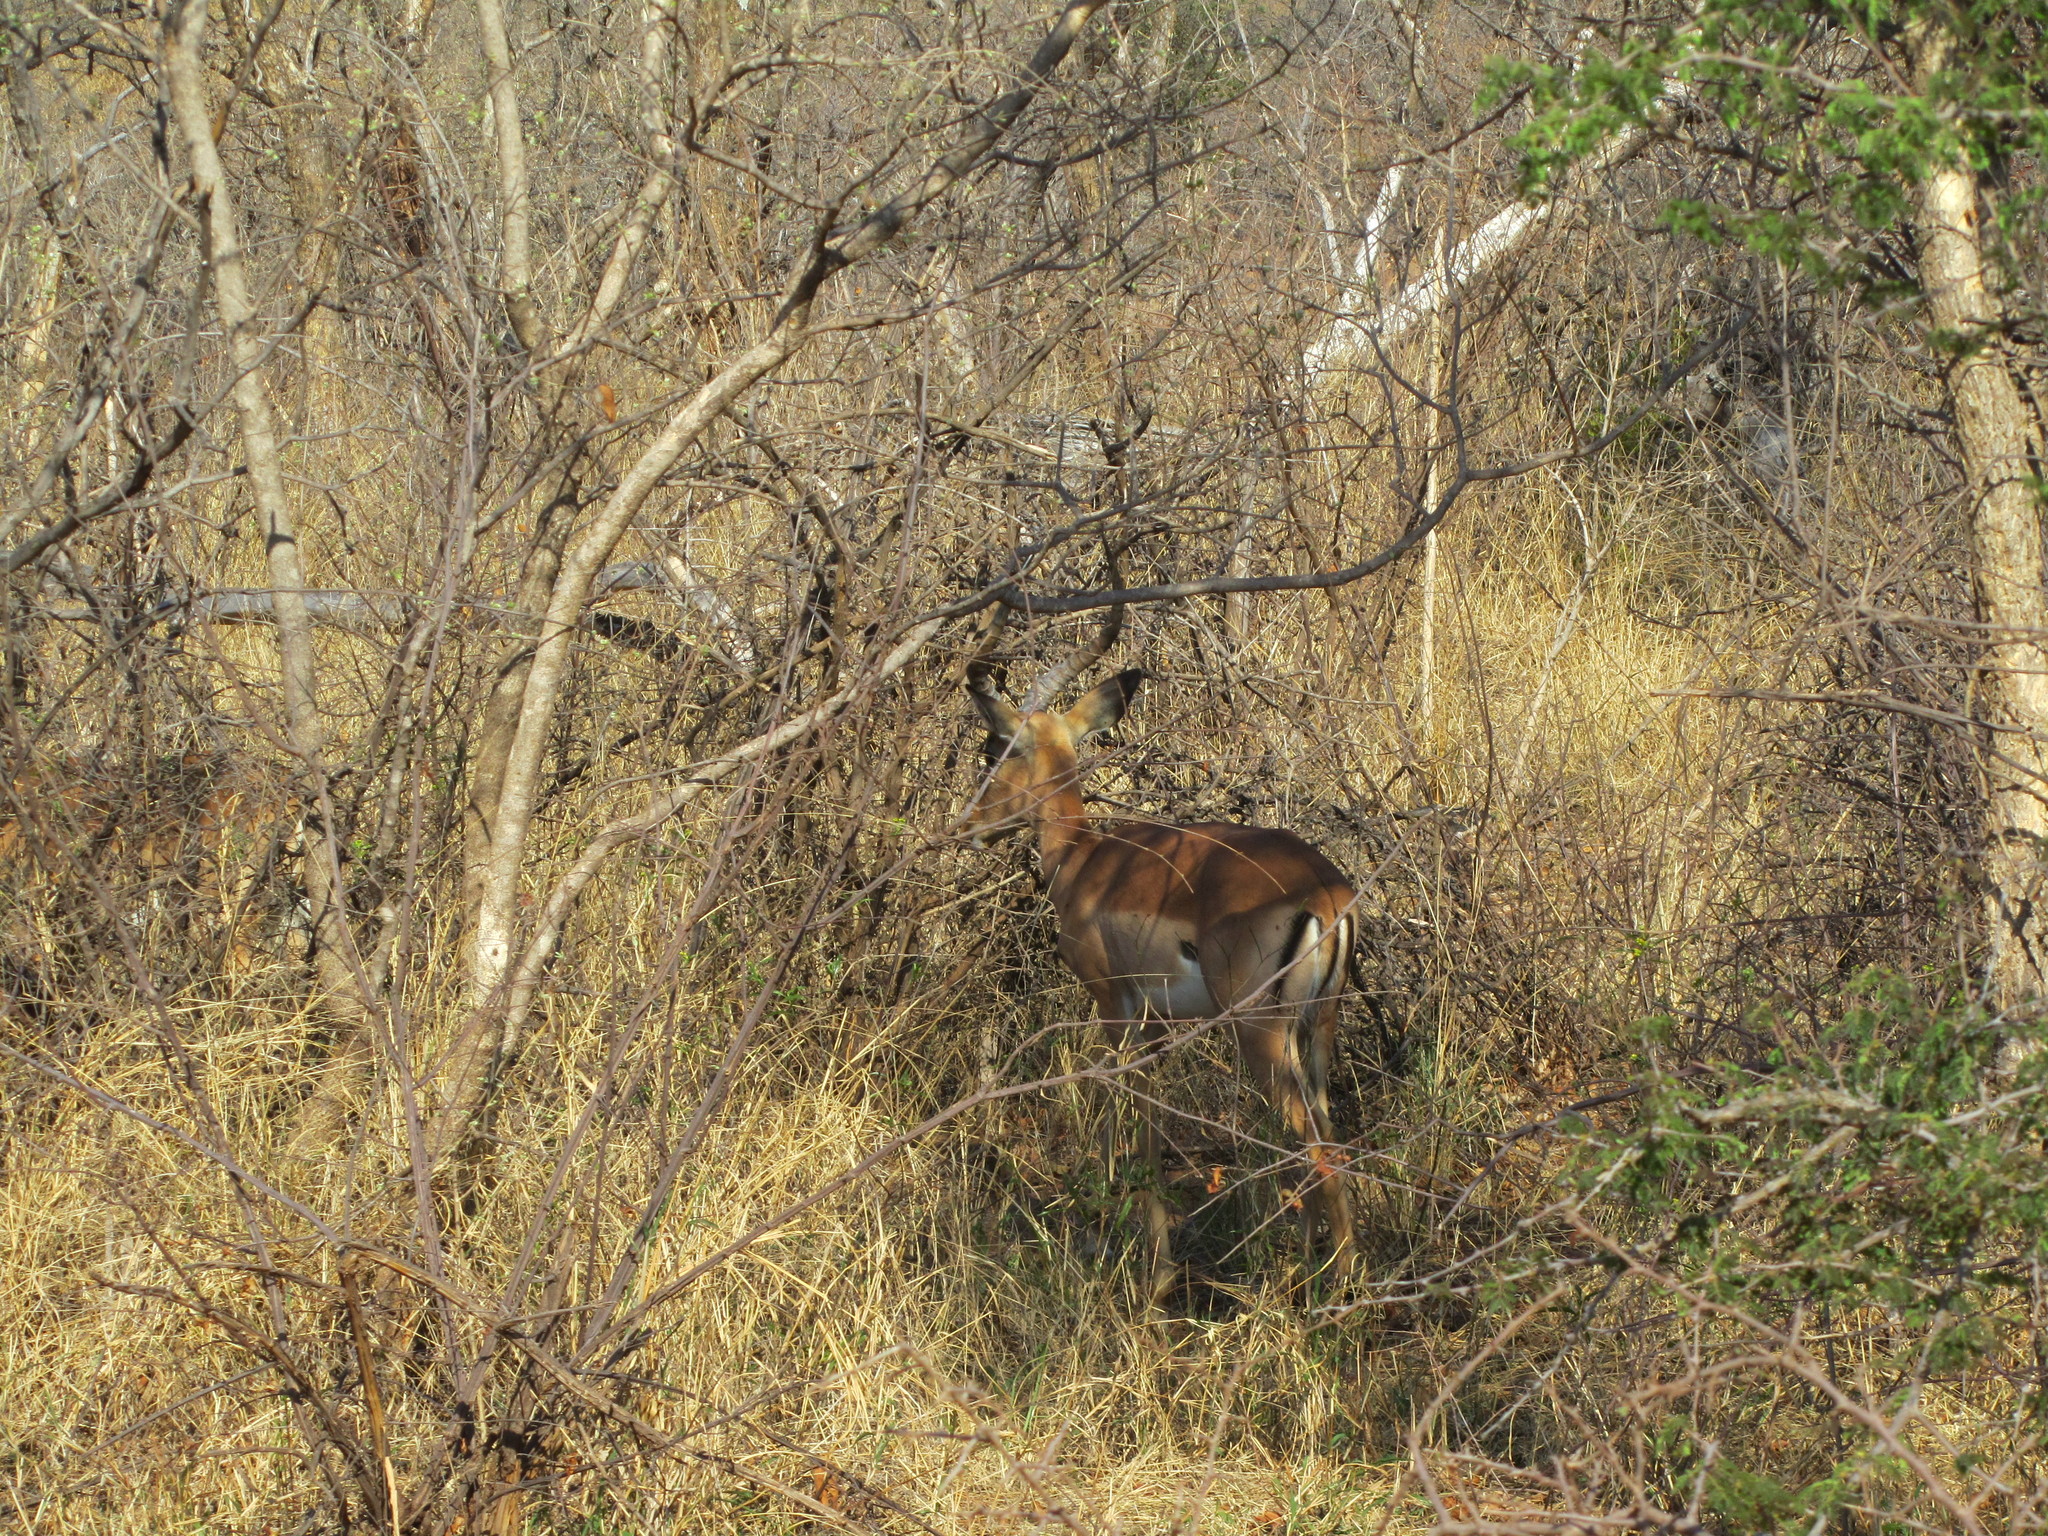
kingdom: Animalia
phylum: Chordata
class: Mammalia
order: Artiodactyla
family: Bovidae
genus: Aepyceros
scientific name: Aepyceros melampus
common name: Impala
